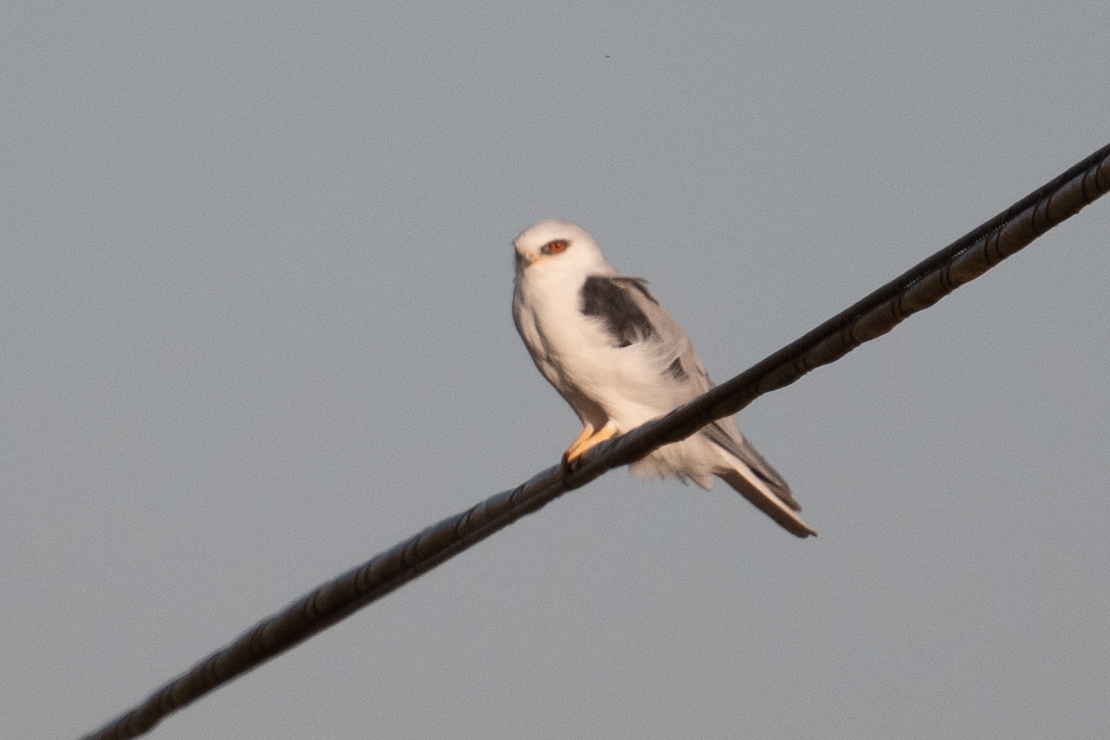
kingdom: Animalia
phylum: Chordata
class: Aves
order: Accipitriformes
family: Accipitridae
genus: Elanus
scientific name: Elanus leucurus
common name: White-tailed kite
